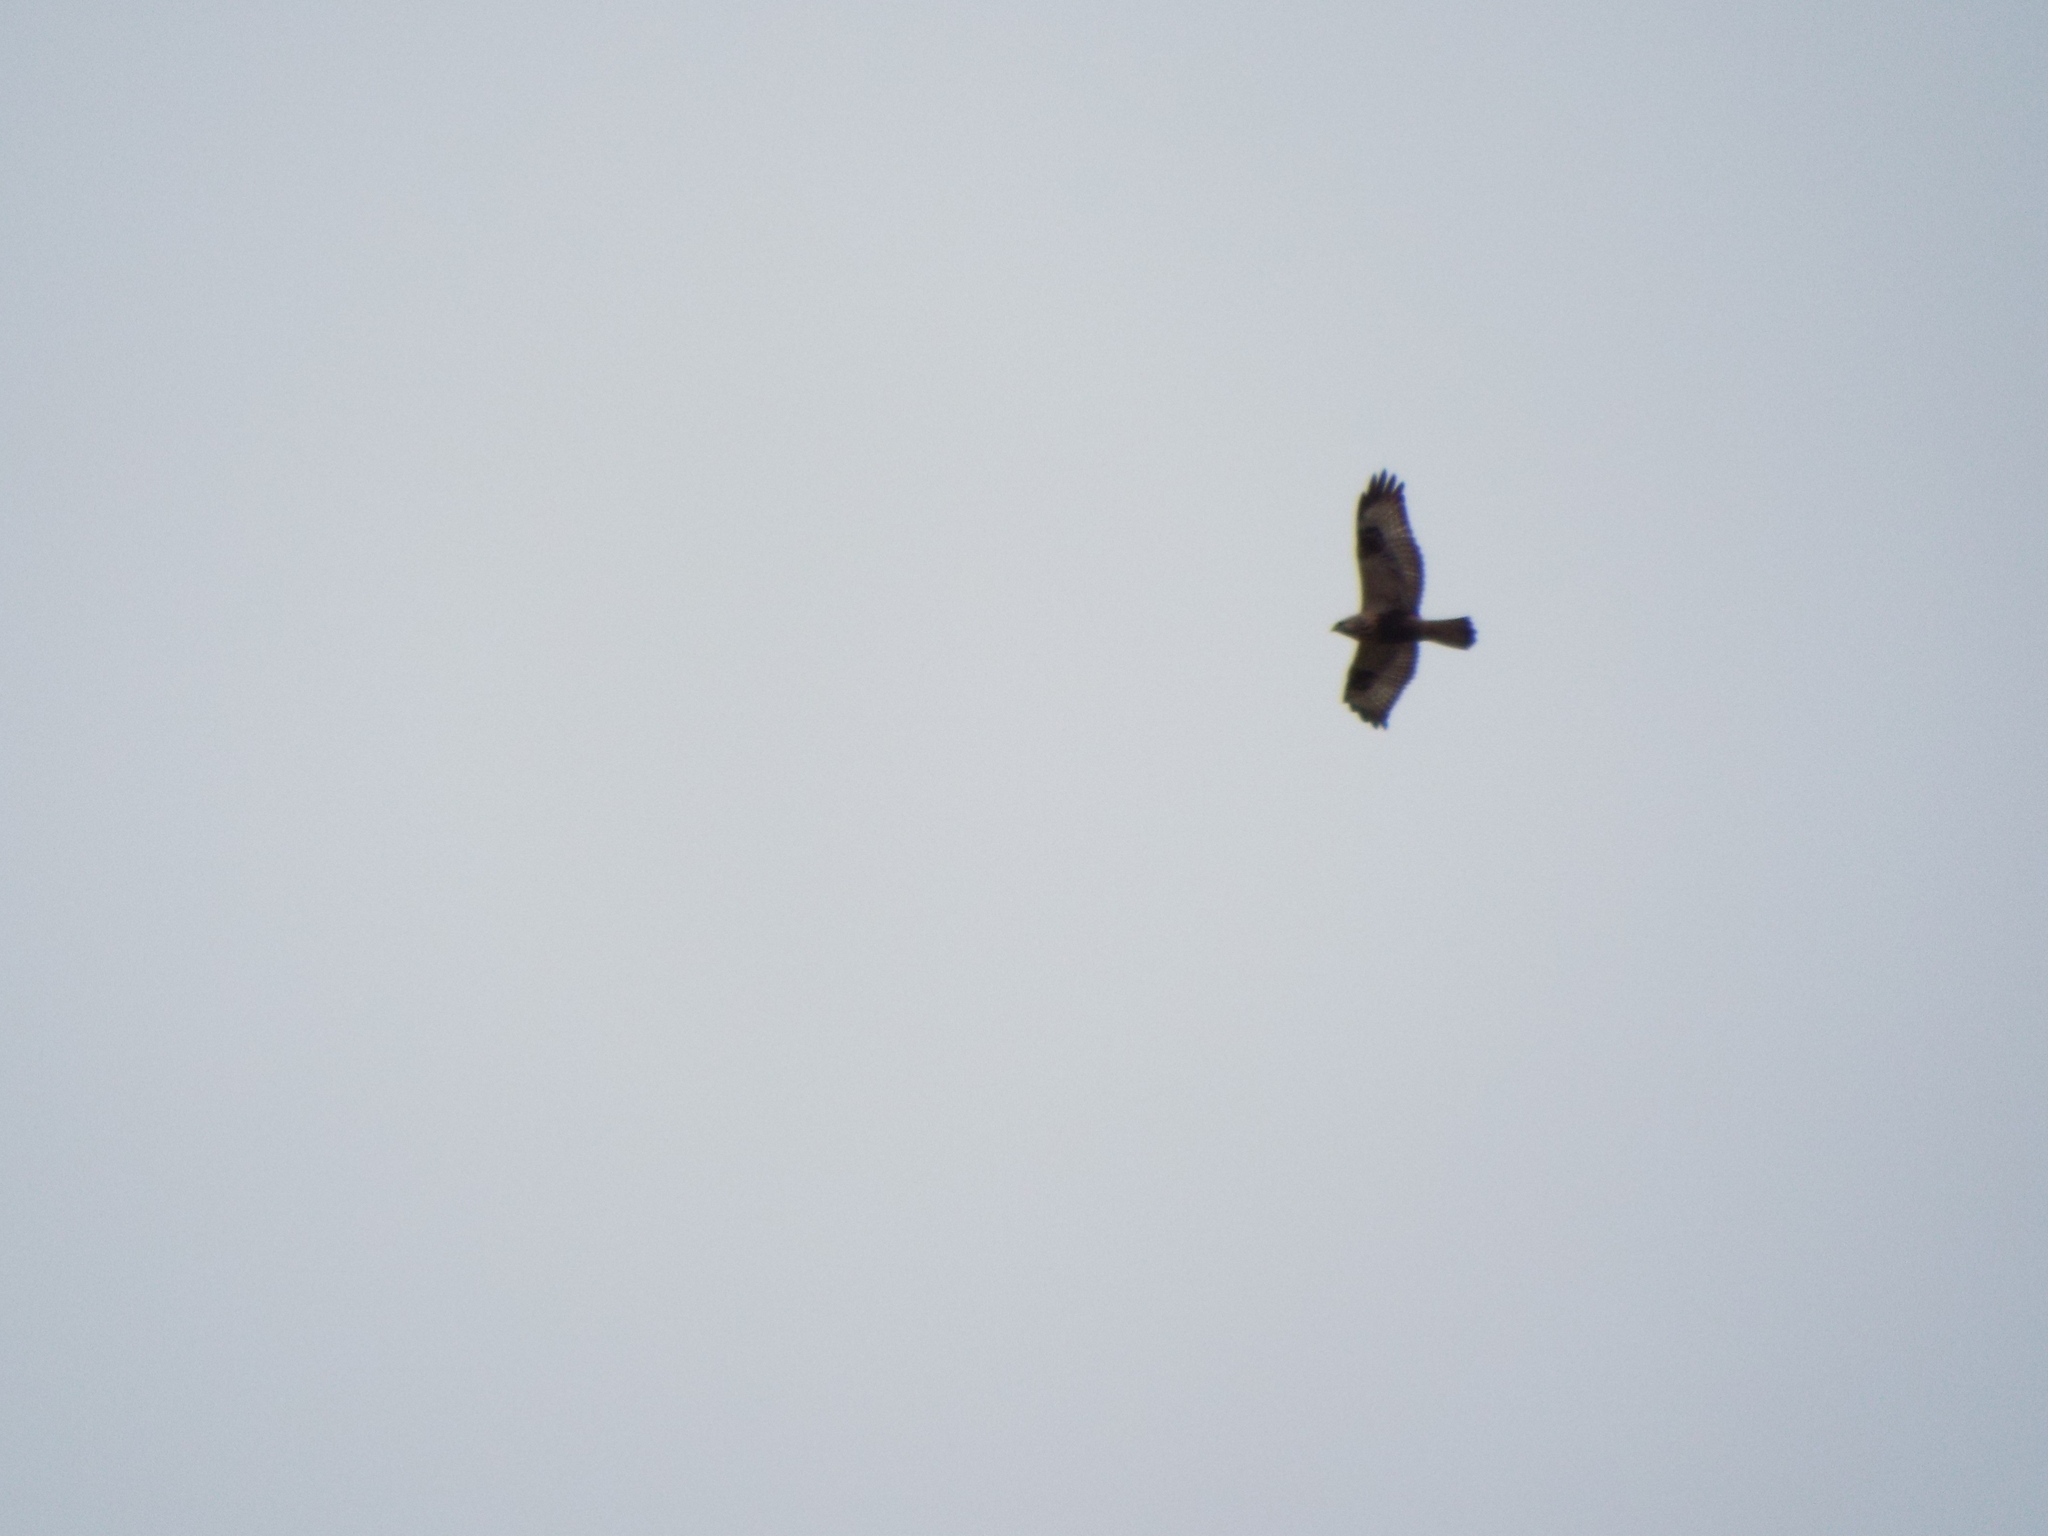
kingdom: Animalia
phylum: Chordata
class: Aves
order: Accipitriformes
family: Accipitridae
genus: Buteo
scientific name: Buteo lagopus
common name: Rough-legged buzzard
